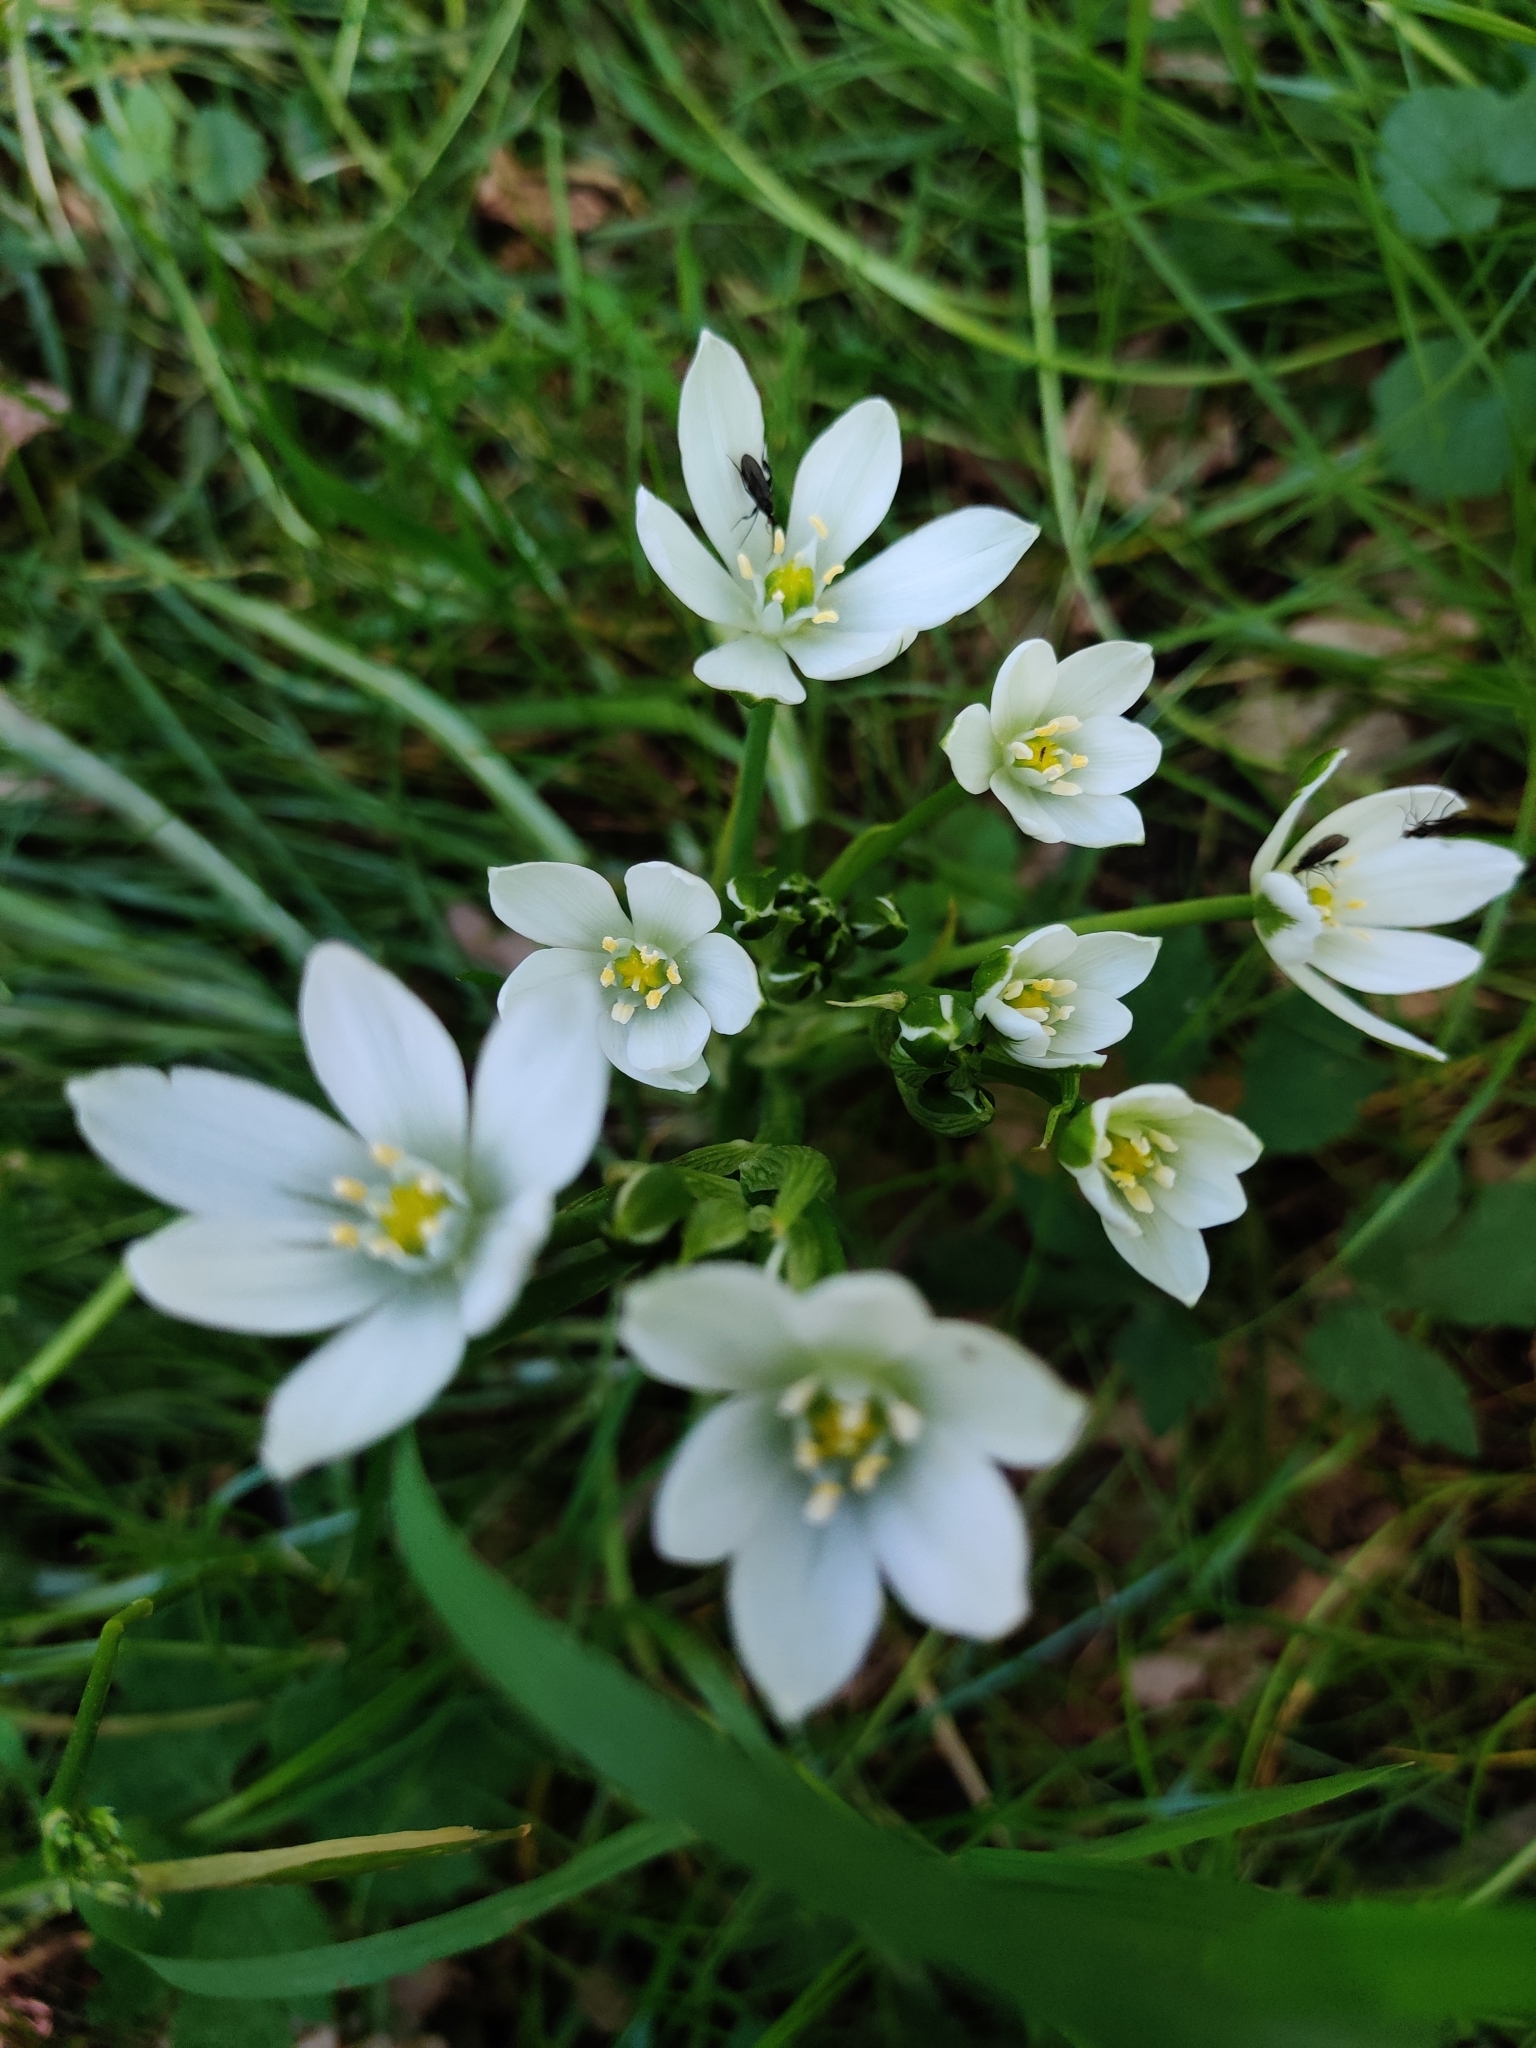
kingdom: Plantae
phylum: Tracheophyta
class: Liliopsida
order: Asparagales
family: Asparagaceae
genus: Ornithogalum
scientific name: Ornithogalum umbellatum
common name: Garden star-of-bethlehem
